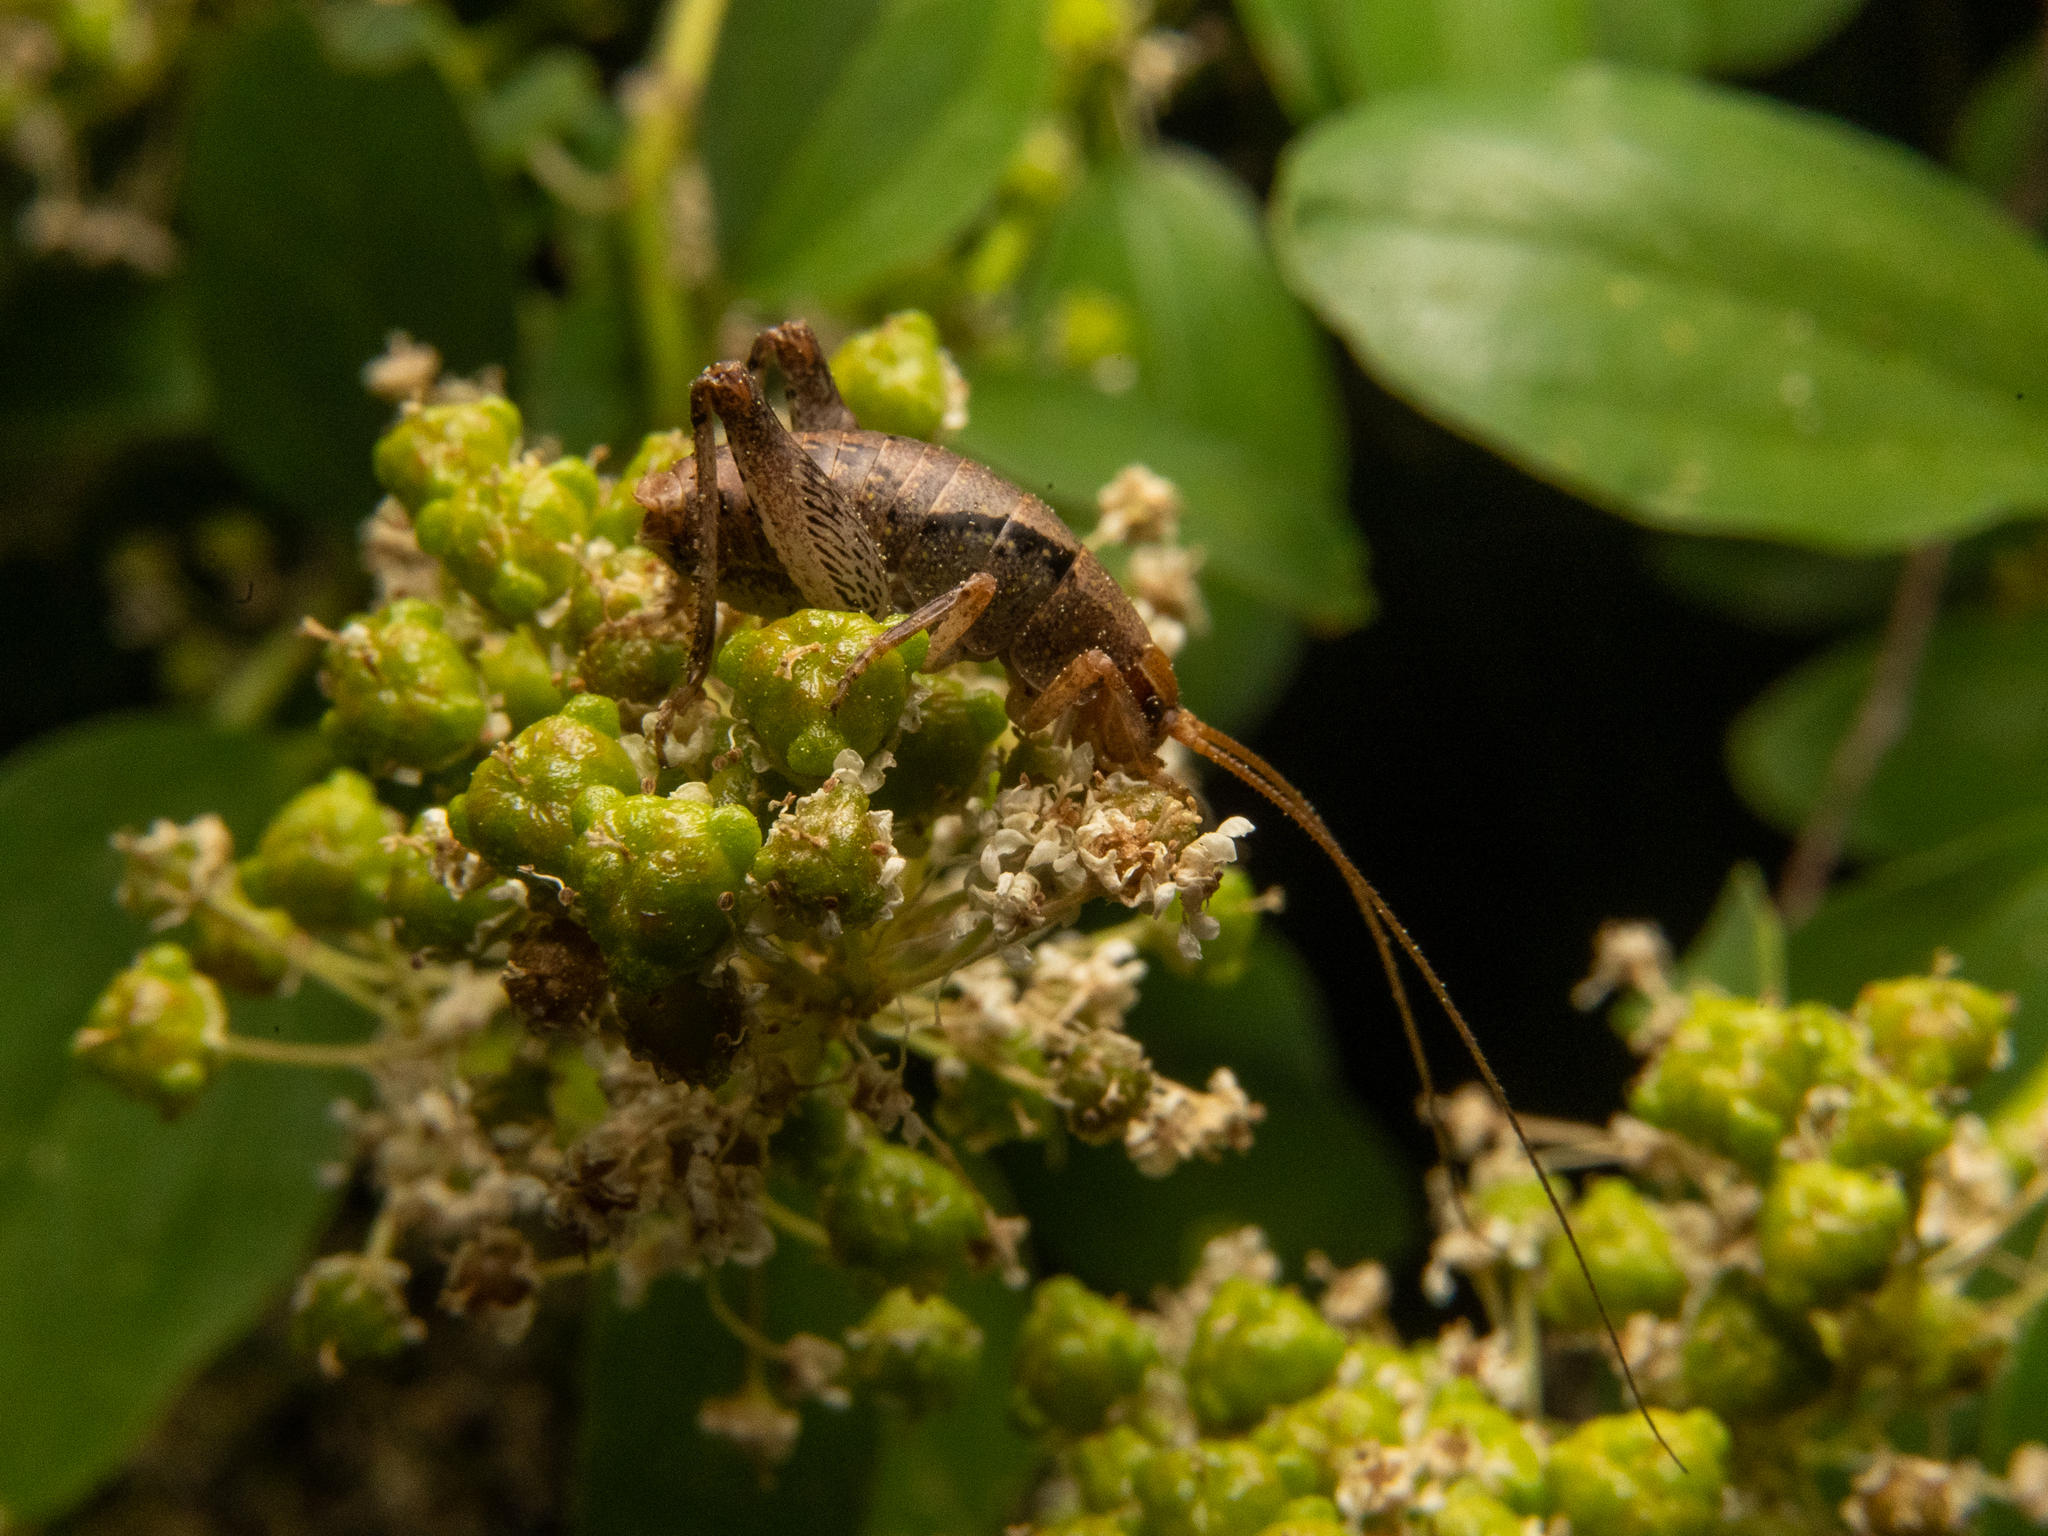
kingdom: Animalia
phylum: Arthropoda
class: Insecta
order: Orthoptera
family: Rhaphidophoridae
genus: Gammarotettix
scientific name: Gammarotettix bilobatus
